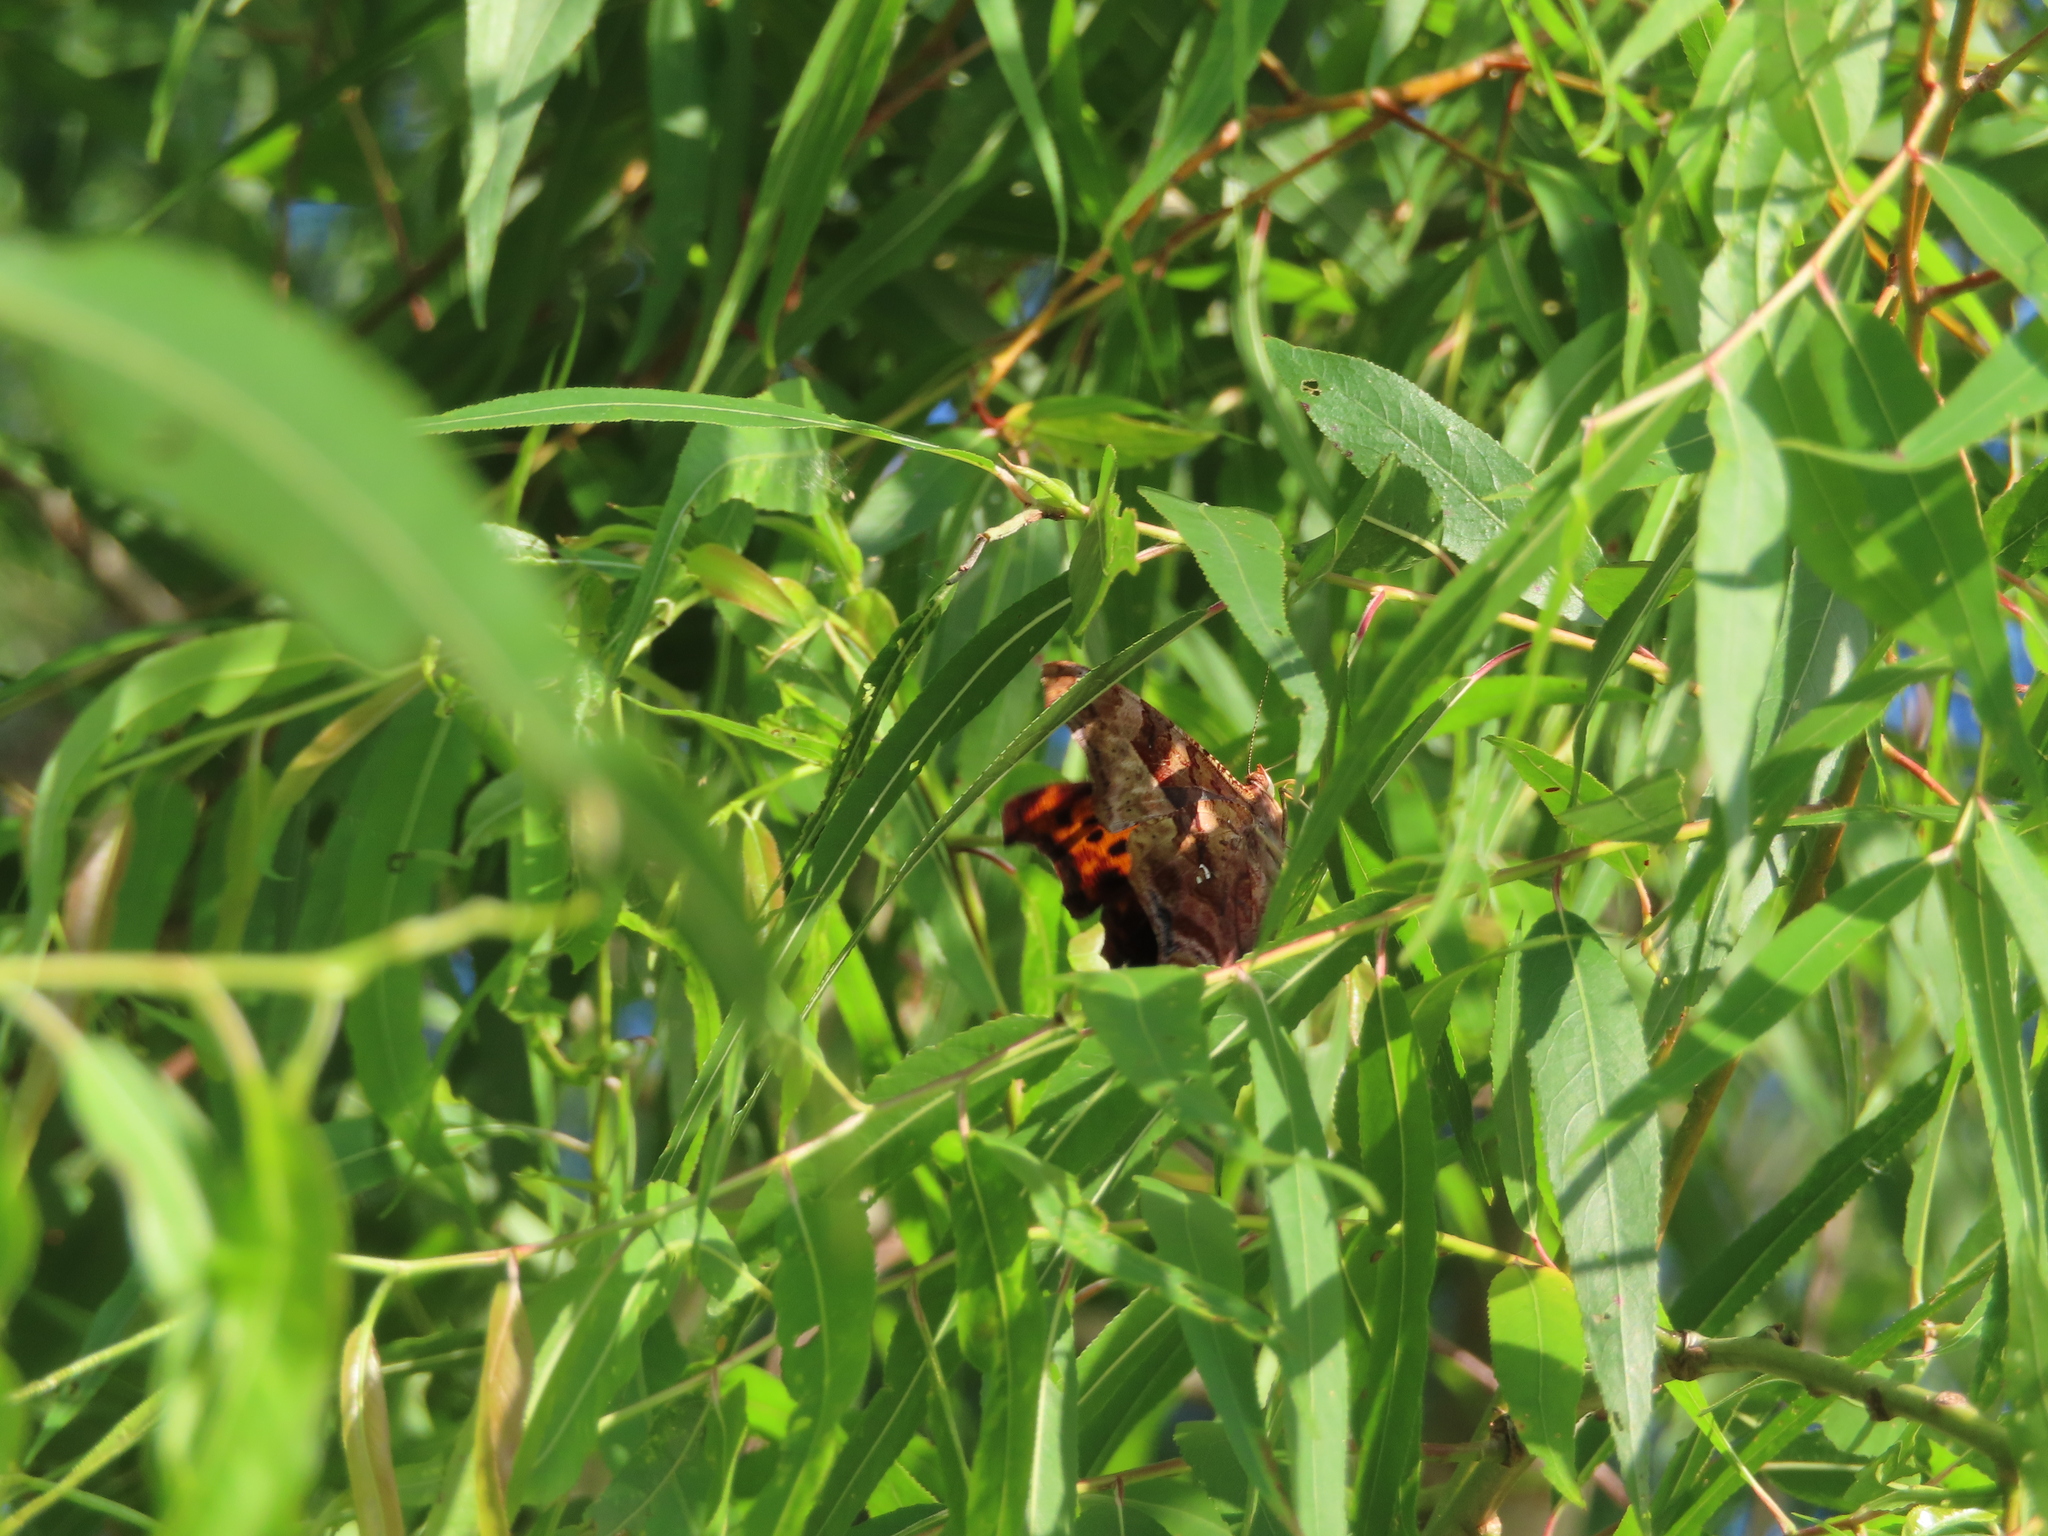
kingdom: Animalia
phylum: Arthropoda
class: Insecta
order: Lepidoptera
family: Nymphalidae
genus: Polygonia
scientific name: Polygonia interrogationis
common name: Question mark
